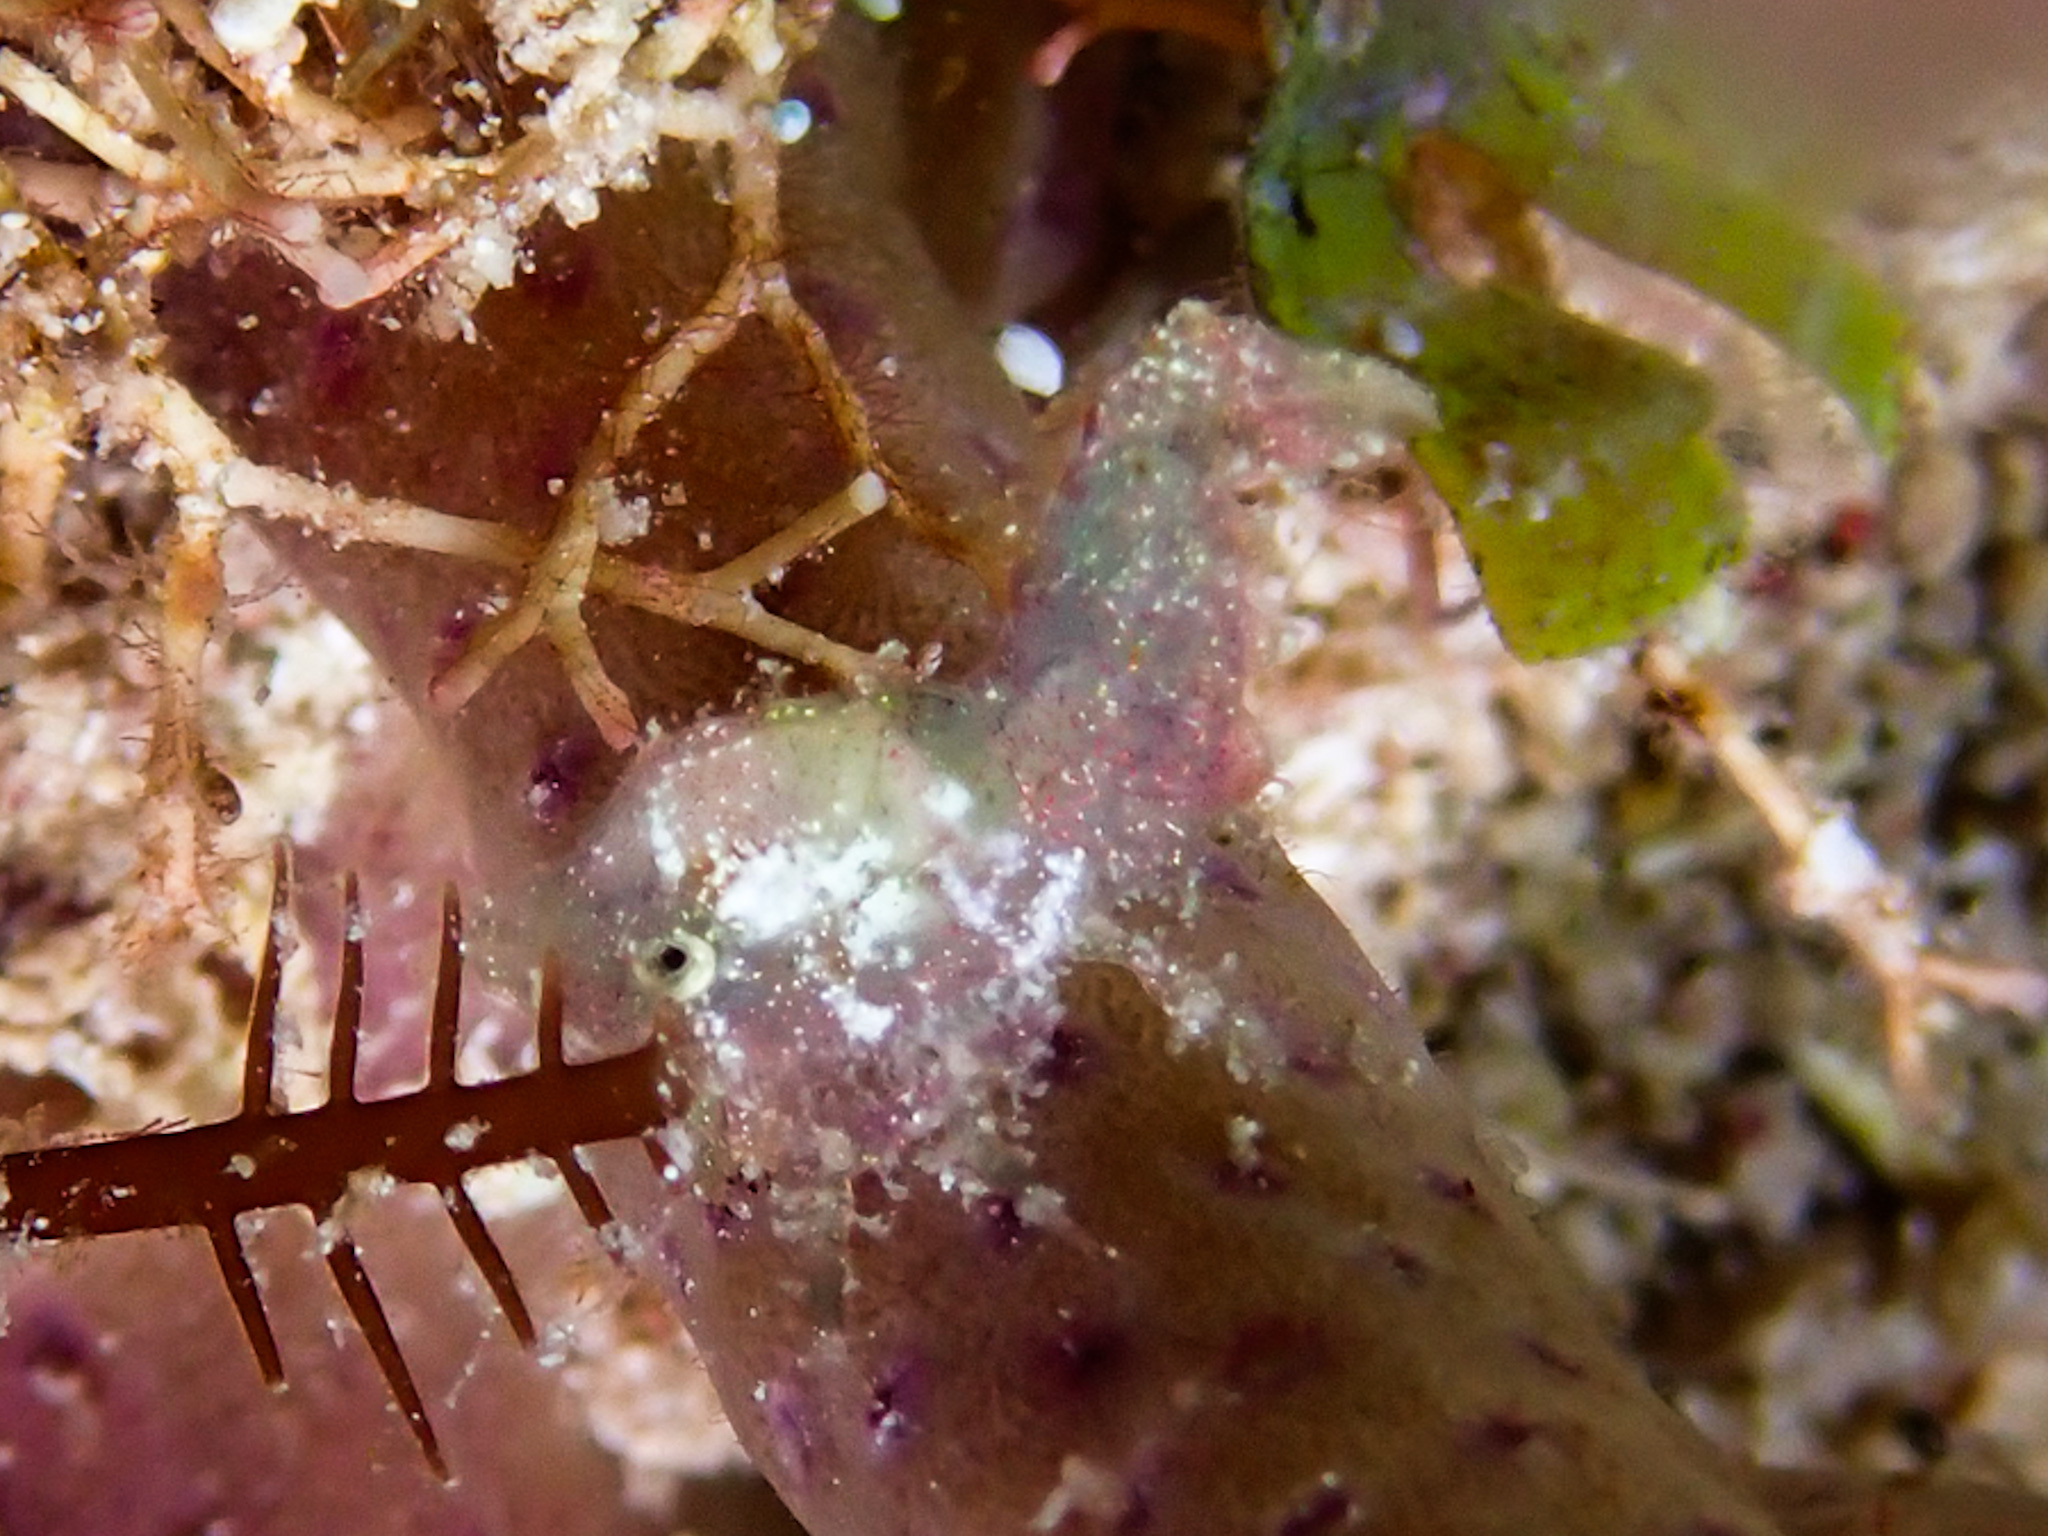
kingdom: Animalia
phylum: Arthropoda
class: Malacostraca
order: Decapoda
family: Hippolytidae
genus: Trachycaris
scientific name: Trachycaris rugosa
